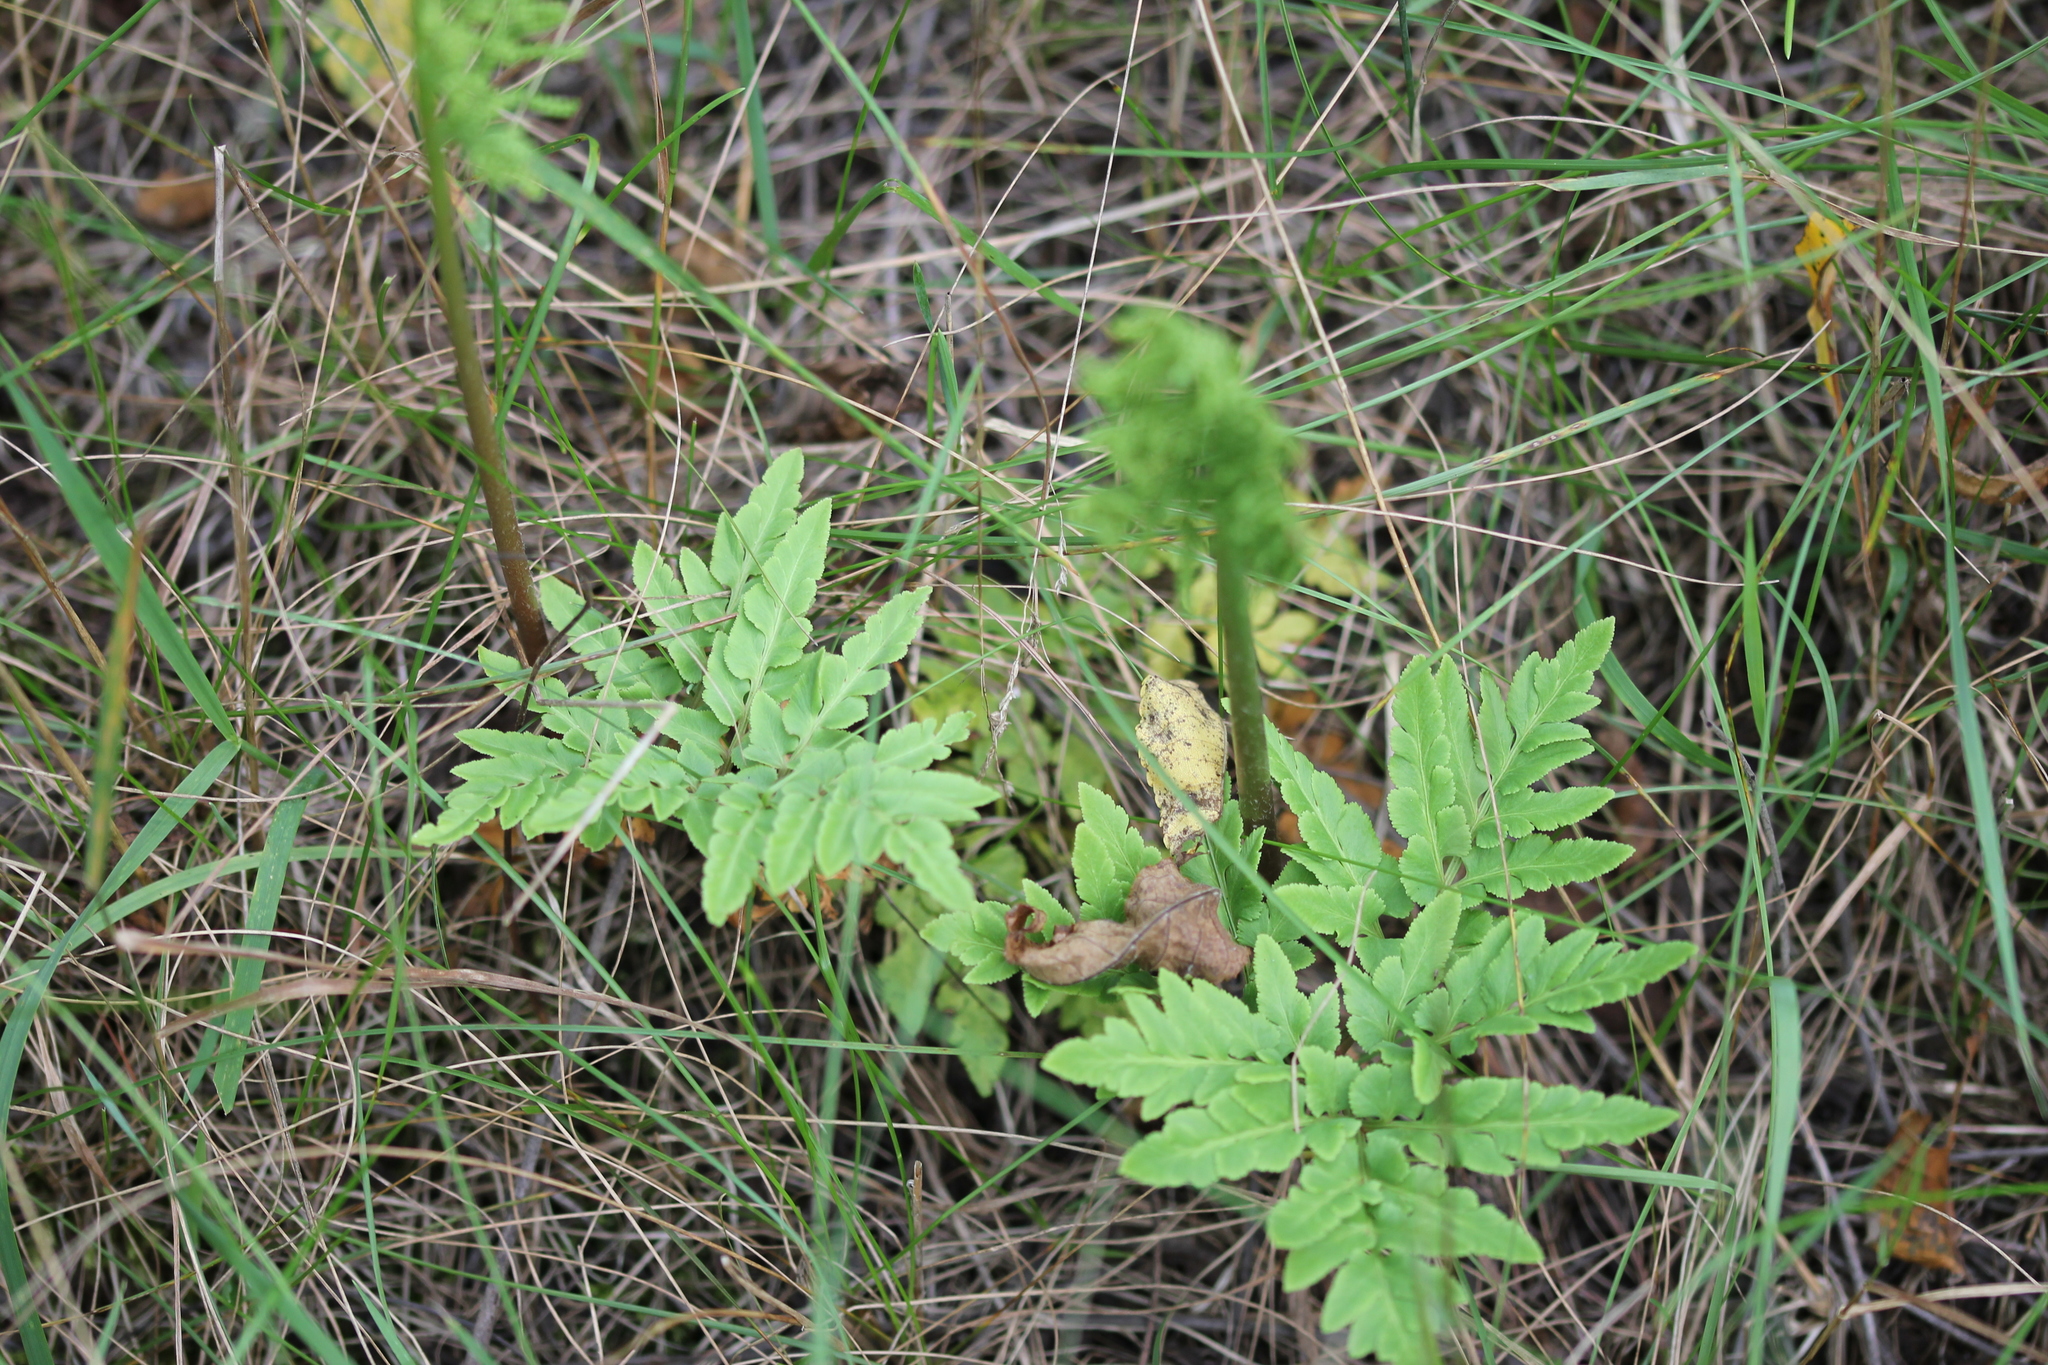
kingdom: Plantae
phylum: Tracheophyta
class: Polypodiopsida
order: Ophioglossales
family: Ophioglossaceae
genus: Sceptridium
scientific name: Sceptridium dissectum
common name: Cut-leaved grapefern
